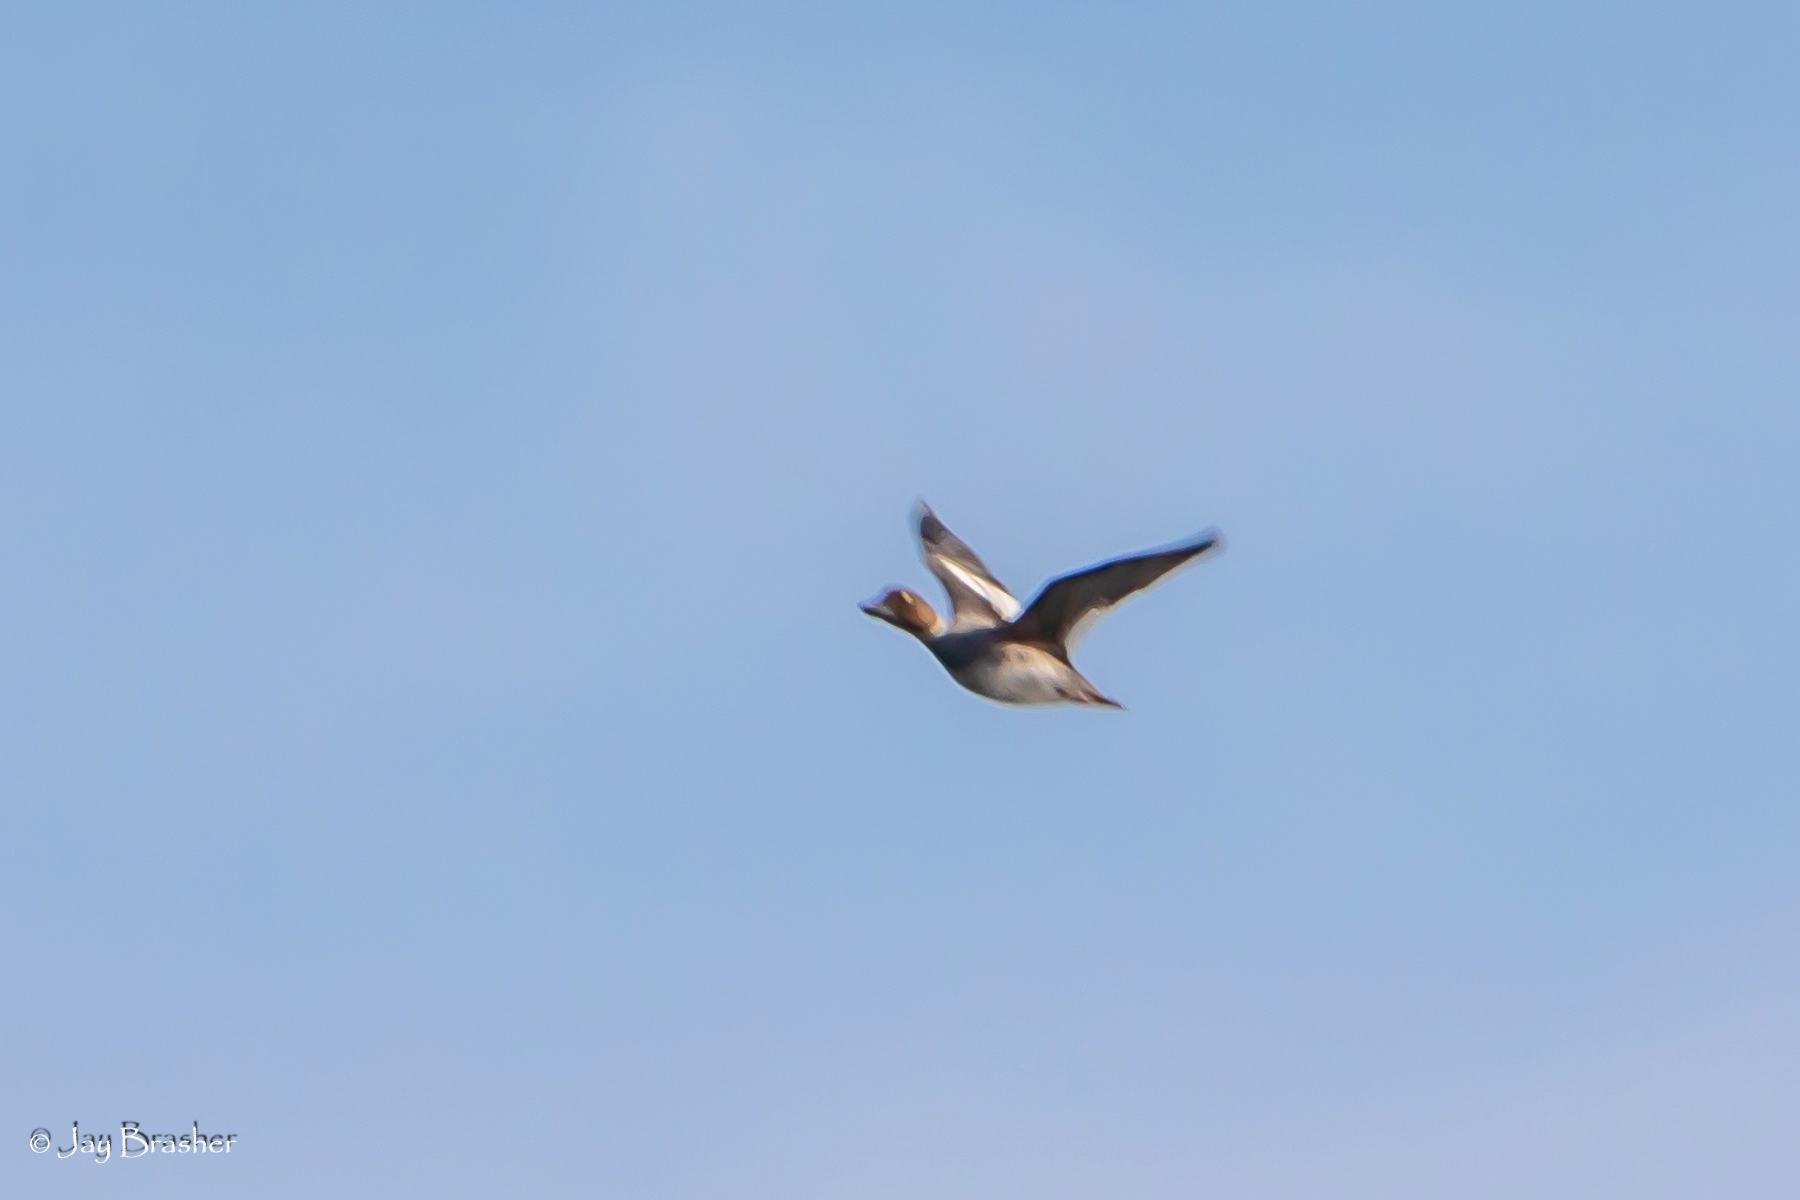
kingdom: Animalia
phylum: Chordata
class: Aves
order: Anseriformes
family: Anatidae
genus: Bucephala
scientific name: Bucephala clangula
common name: Common goldeneye
